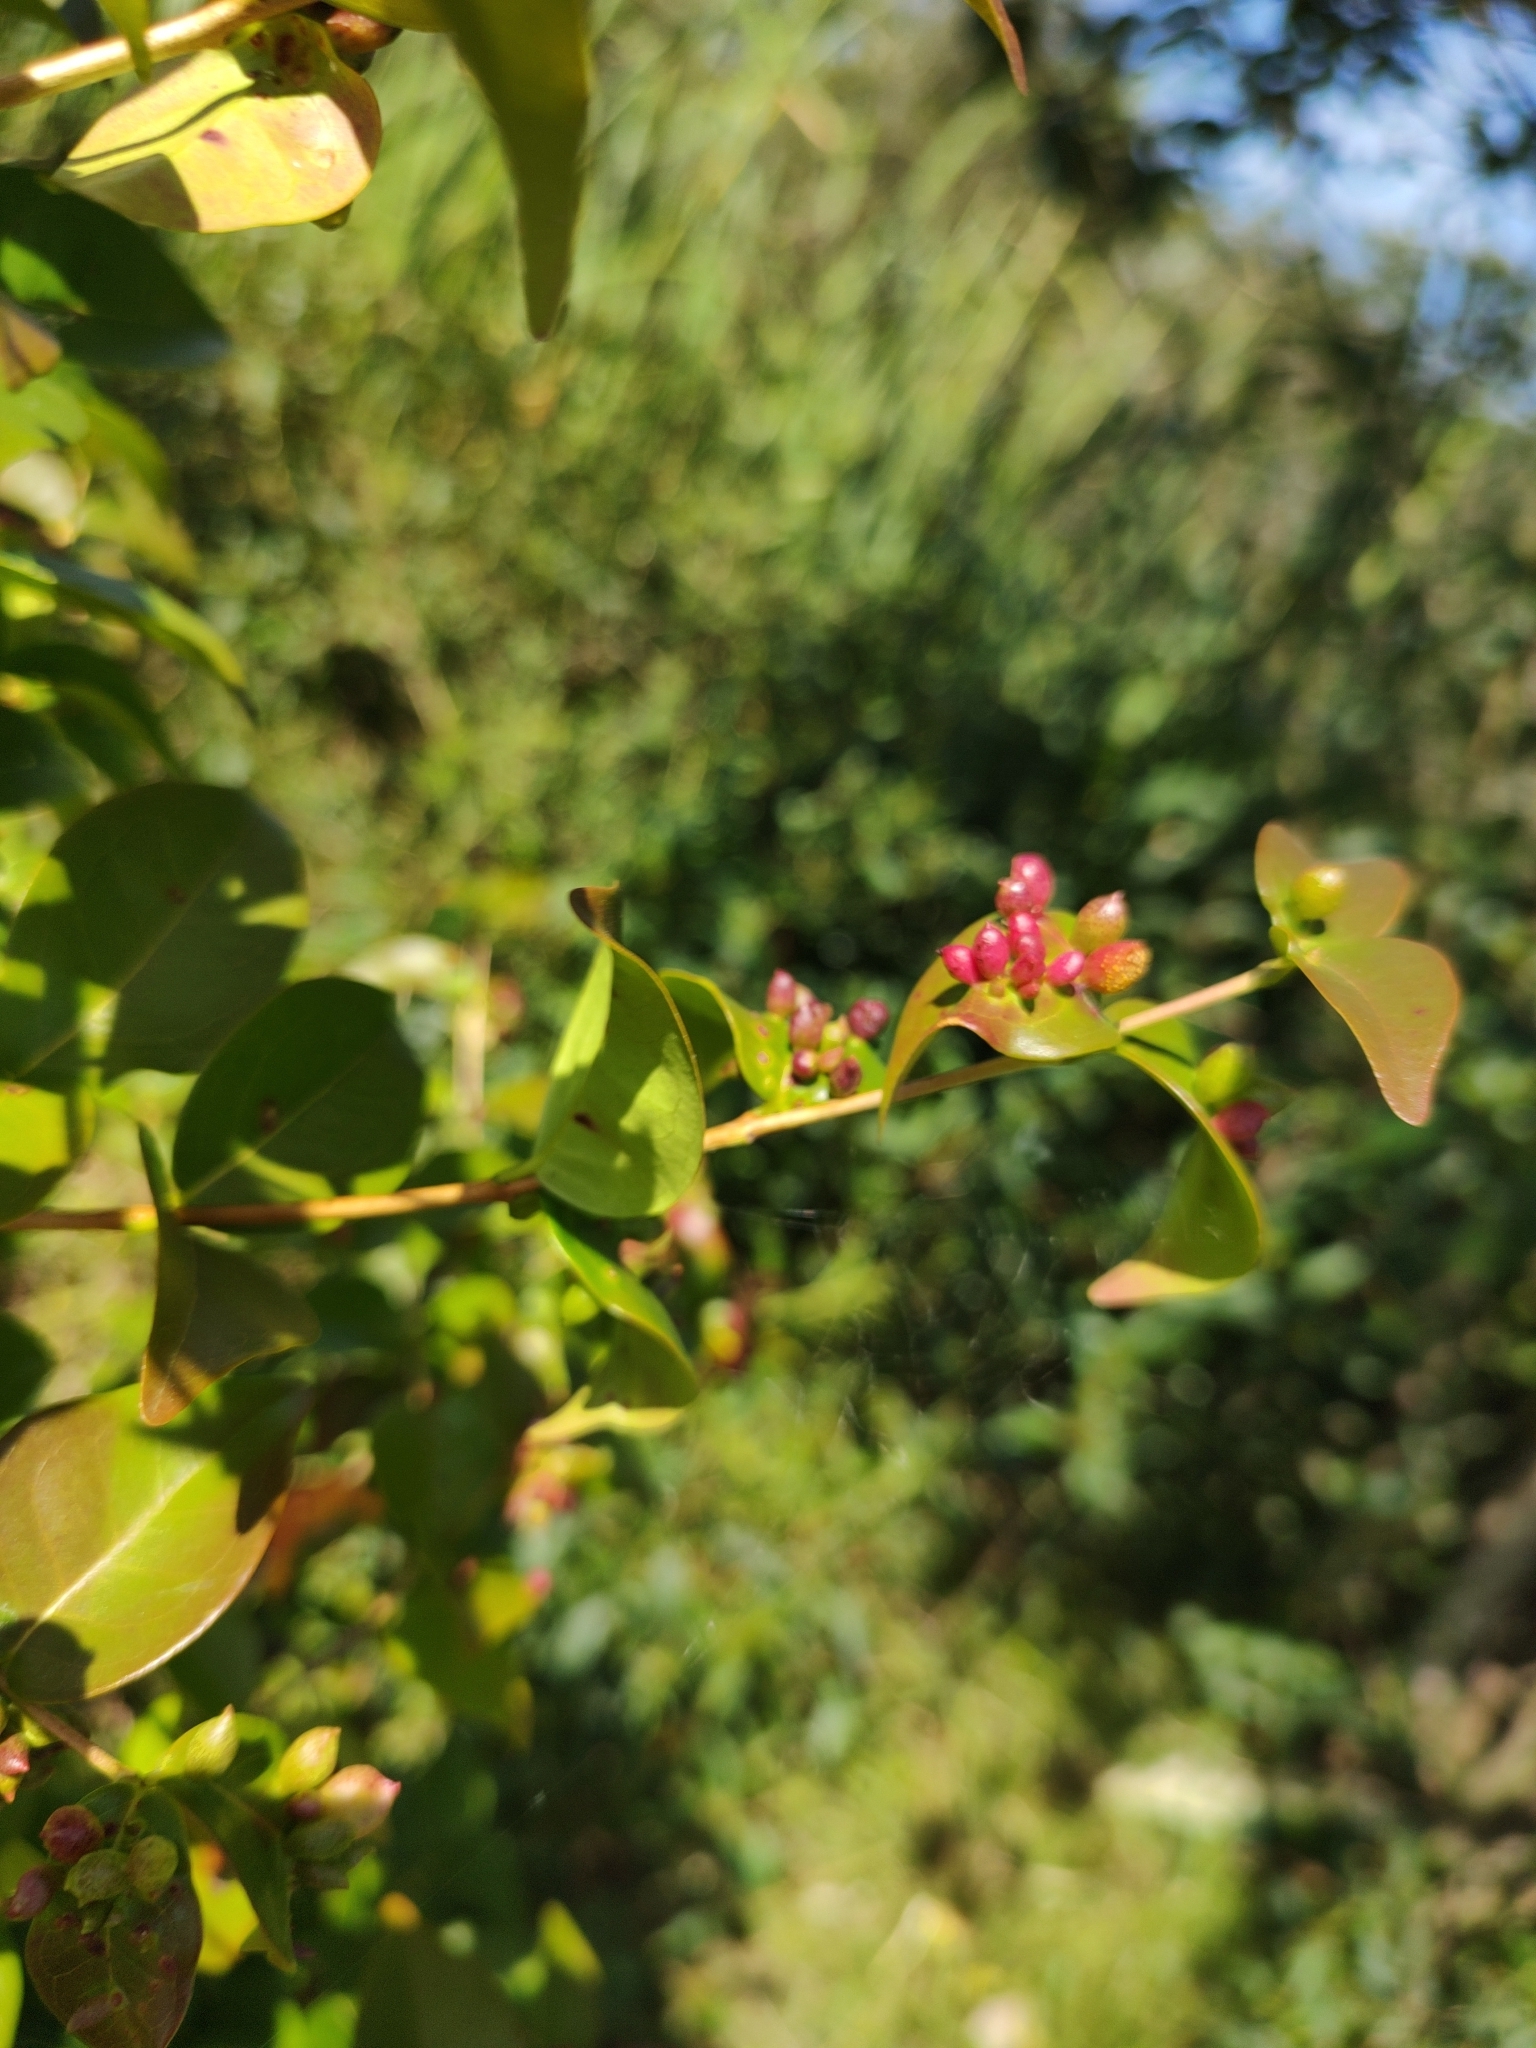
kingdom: Animalia
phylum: Arthropoda
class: Insecta
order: Diptera
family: Cecidomyiidae
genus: Clinodiplosis
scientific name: Clinodiplosis profusa
